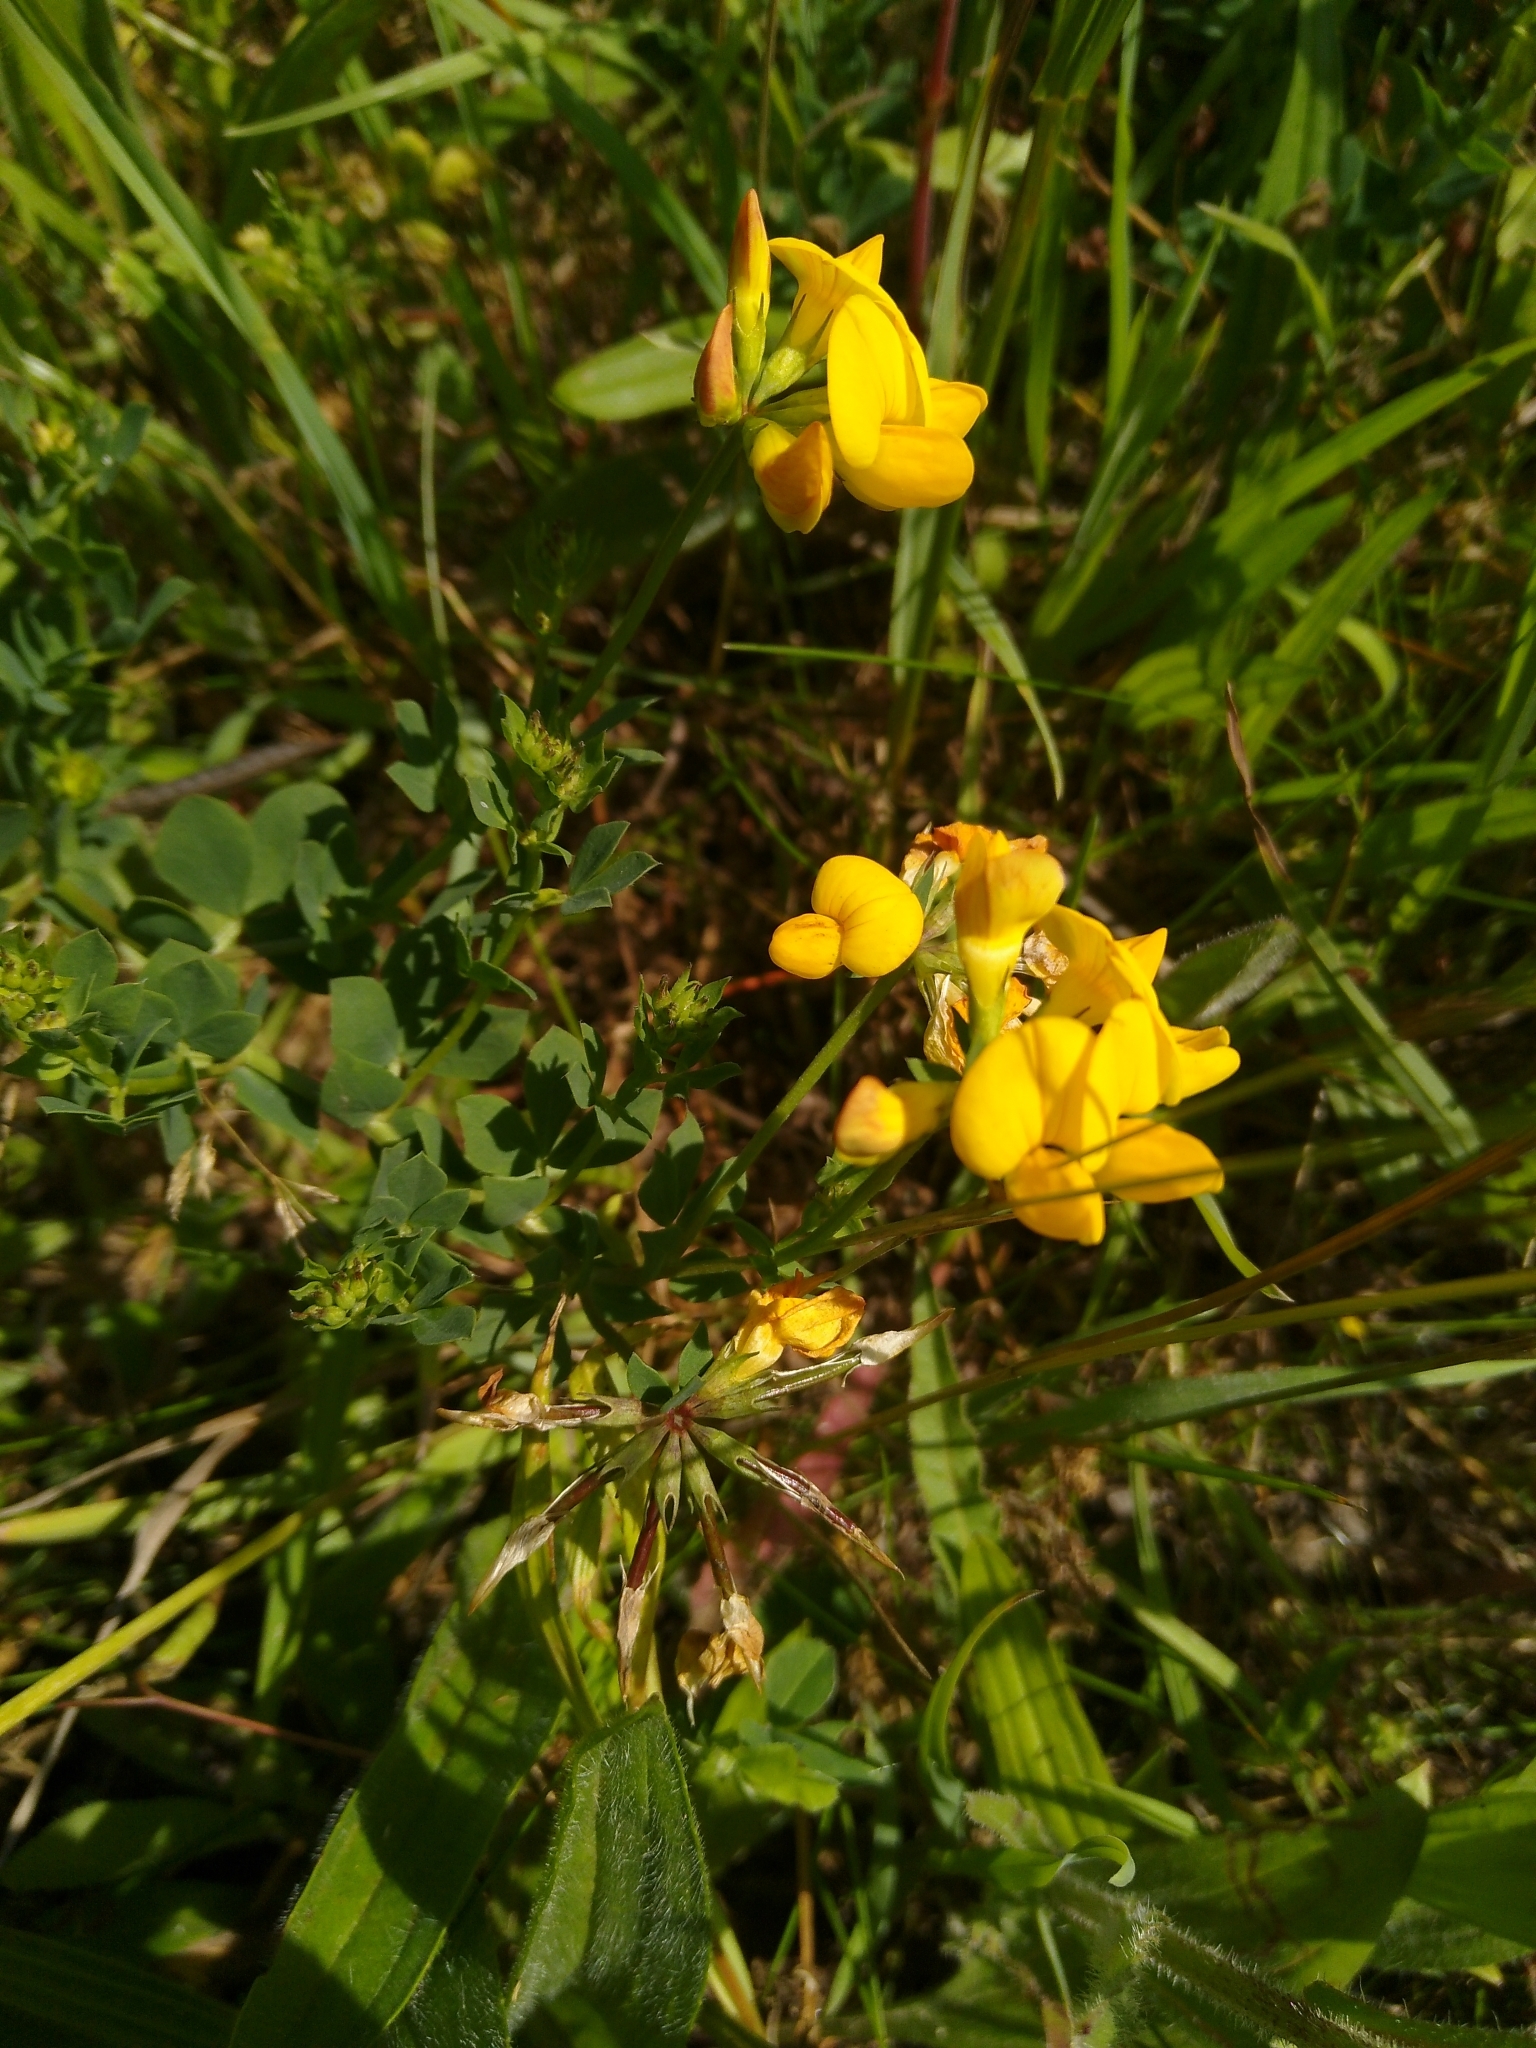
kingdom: Plantae
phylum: Tracheophyta
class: Magnoliopsida
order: Fabales
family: Fabaceae
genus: Lotus
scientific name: Lotus corniculatus
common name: Common bird's-foot-trefoil
